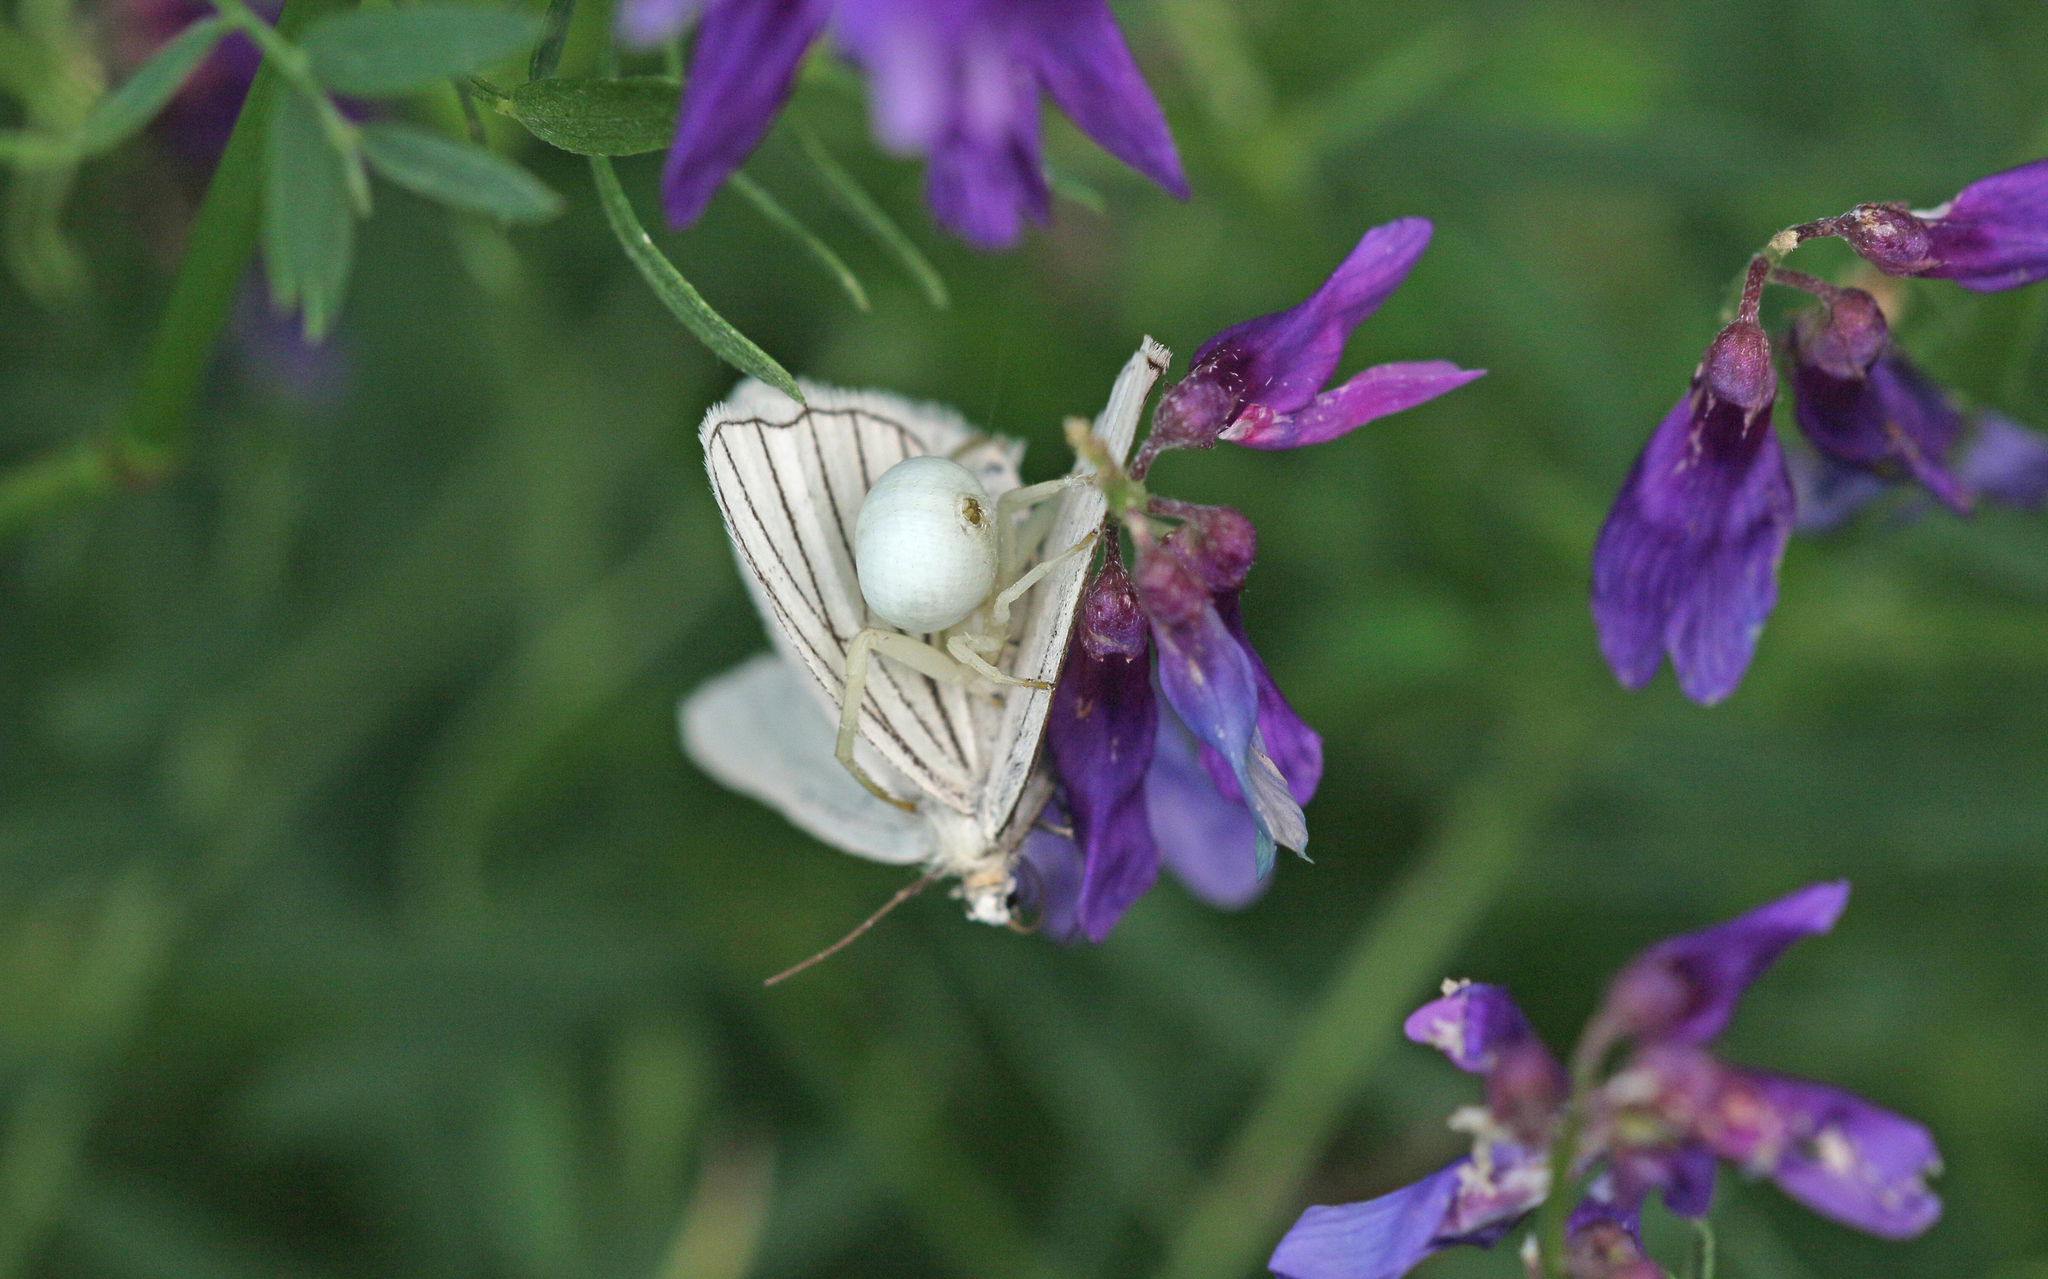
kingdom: Animalia
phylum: Arthropoda
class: Arachnida
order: Araneae
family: Thomisidae
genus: Misumena
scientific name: Misumena vatia
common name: Goldenrod crab spider
